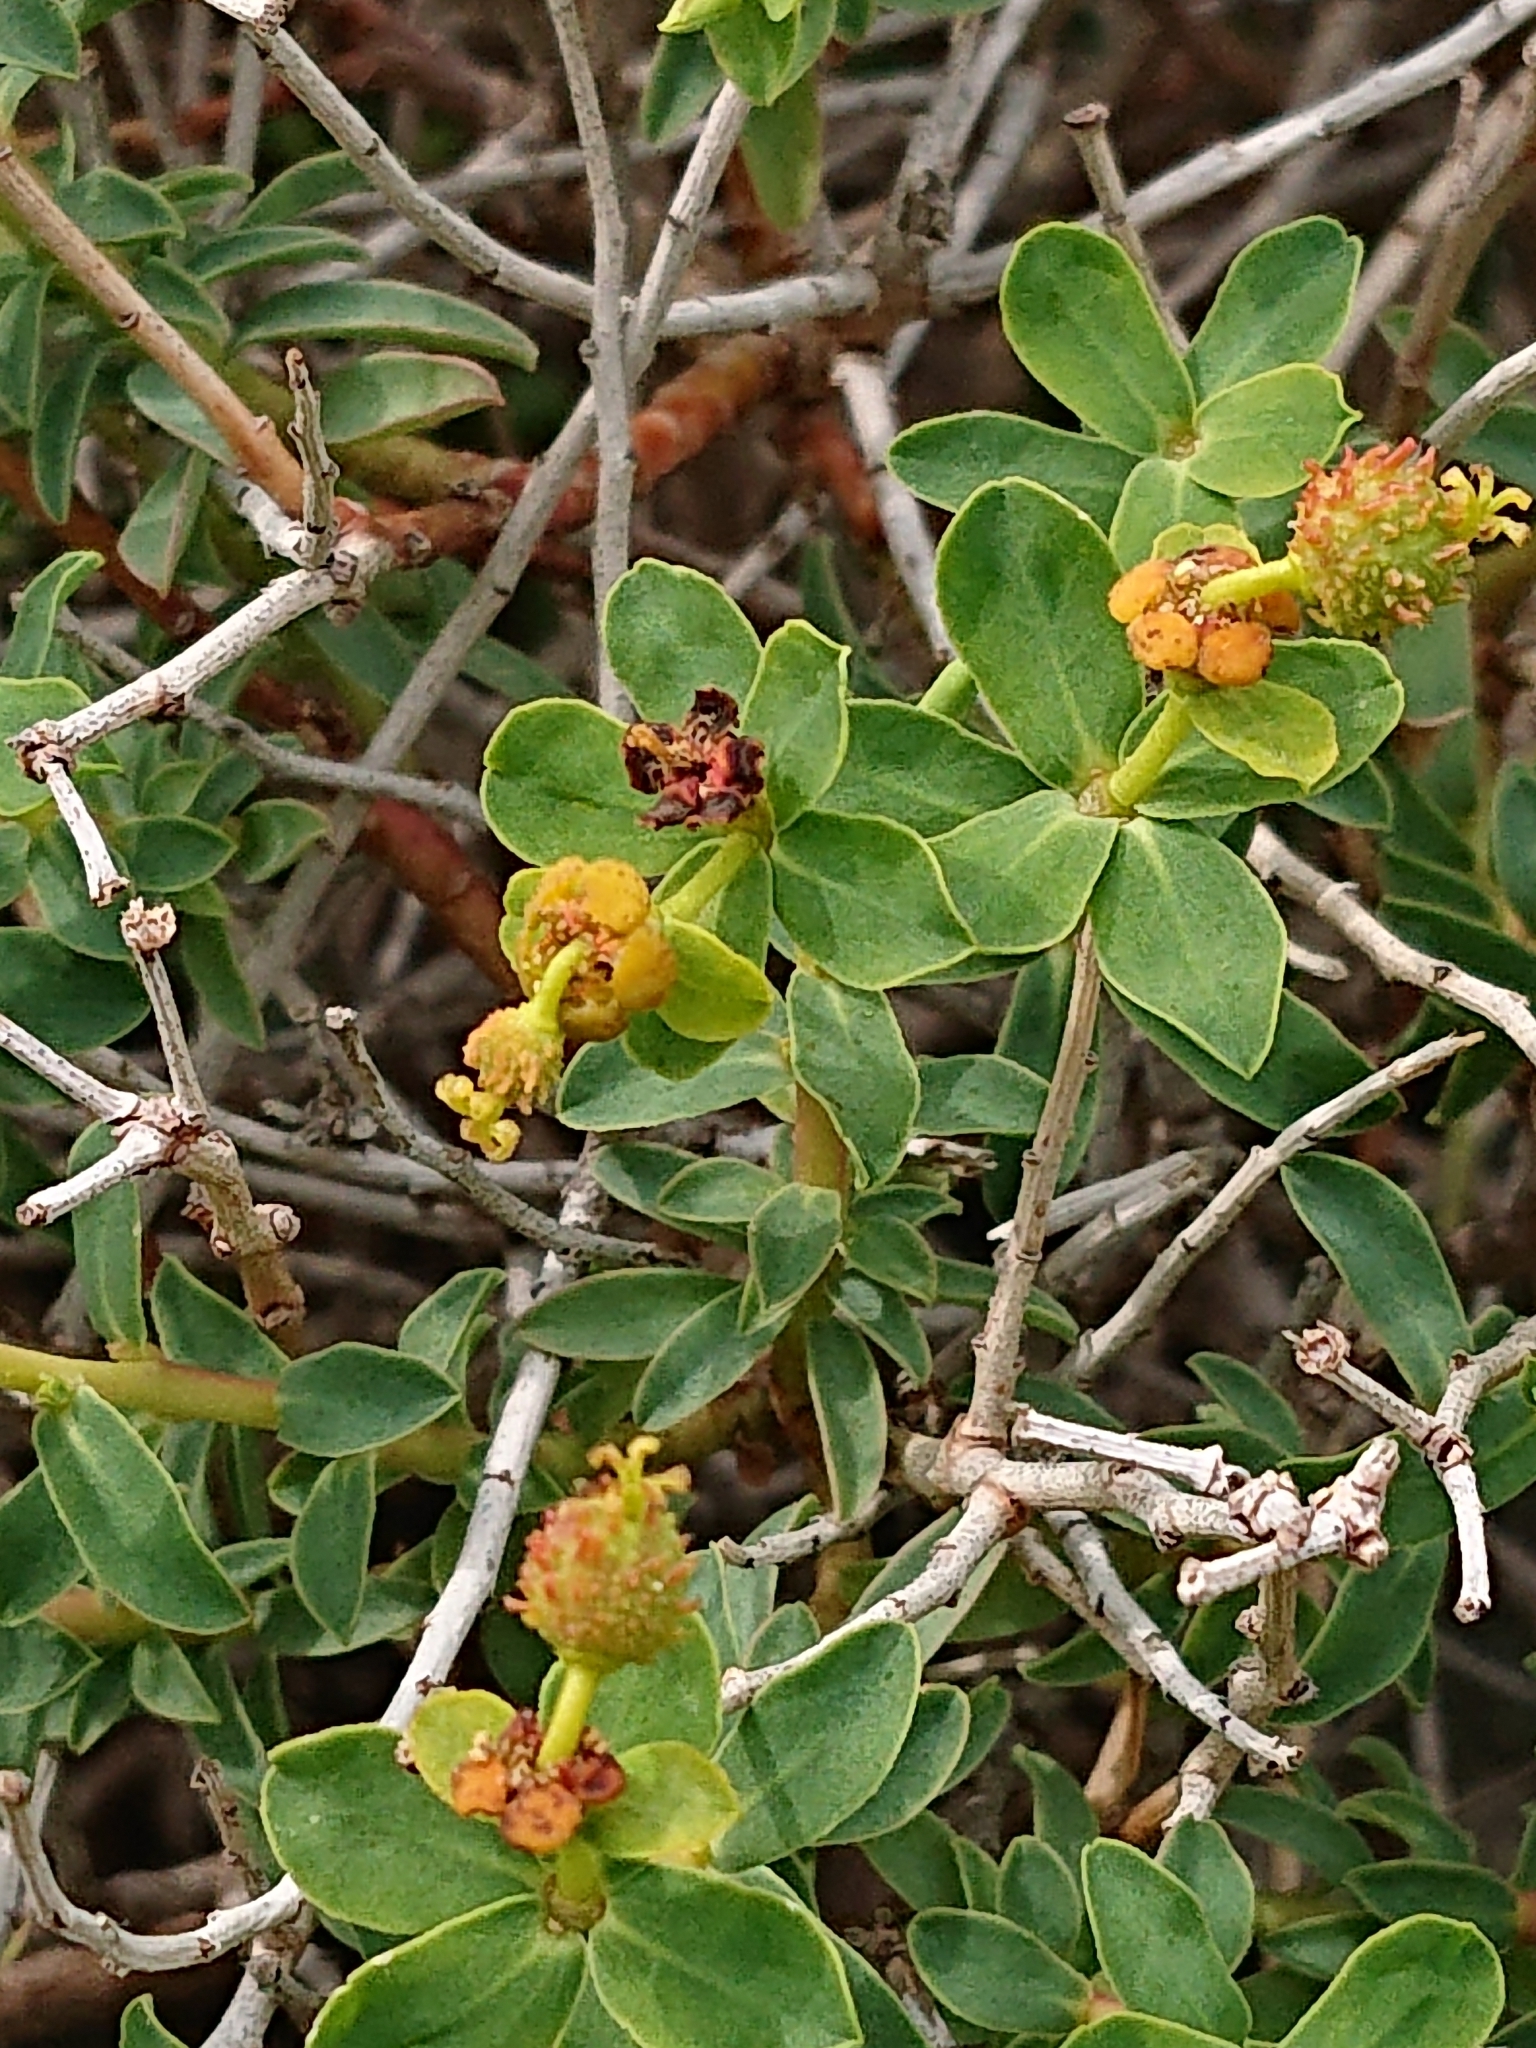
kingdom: Plantae
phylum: Tracheophyta
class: Magnoliopsida
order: Malpighiales
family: Euphorbiaceae
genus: Euphorbia
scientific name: Euphorbia spinosa
